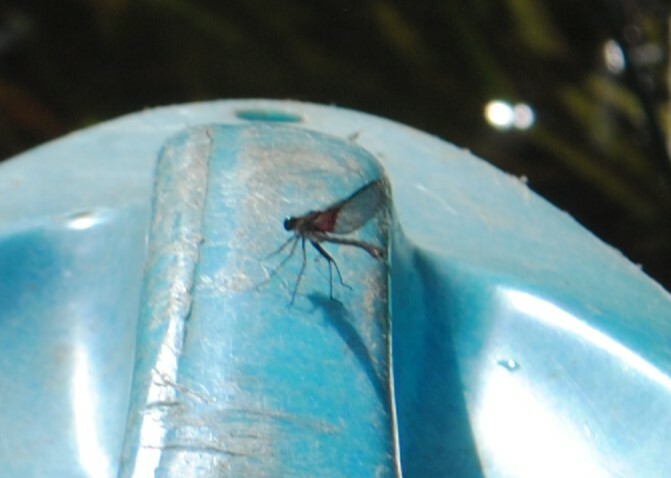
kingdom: Animalia
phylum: Arthropoda
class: Insecta
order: Odonata
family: Calopterygidae
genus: Hetaerina
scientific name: Hetaerina americana
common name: American rubyspot
